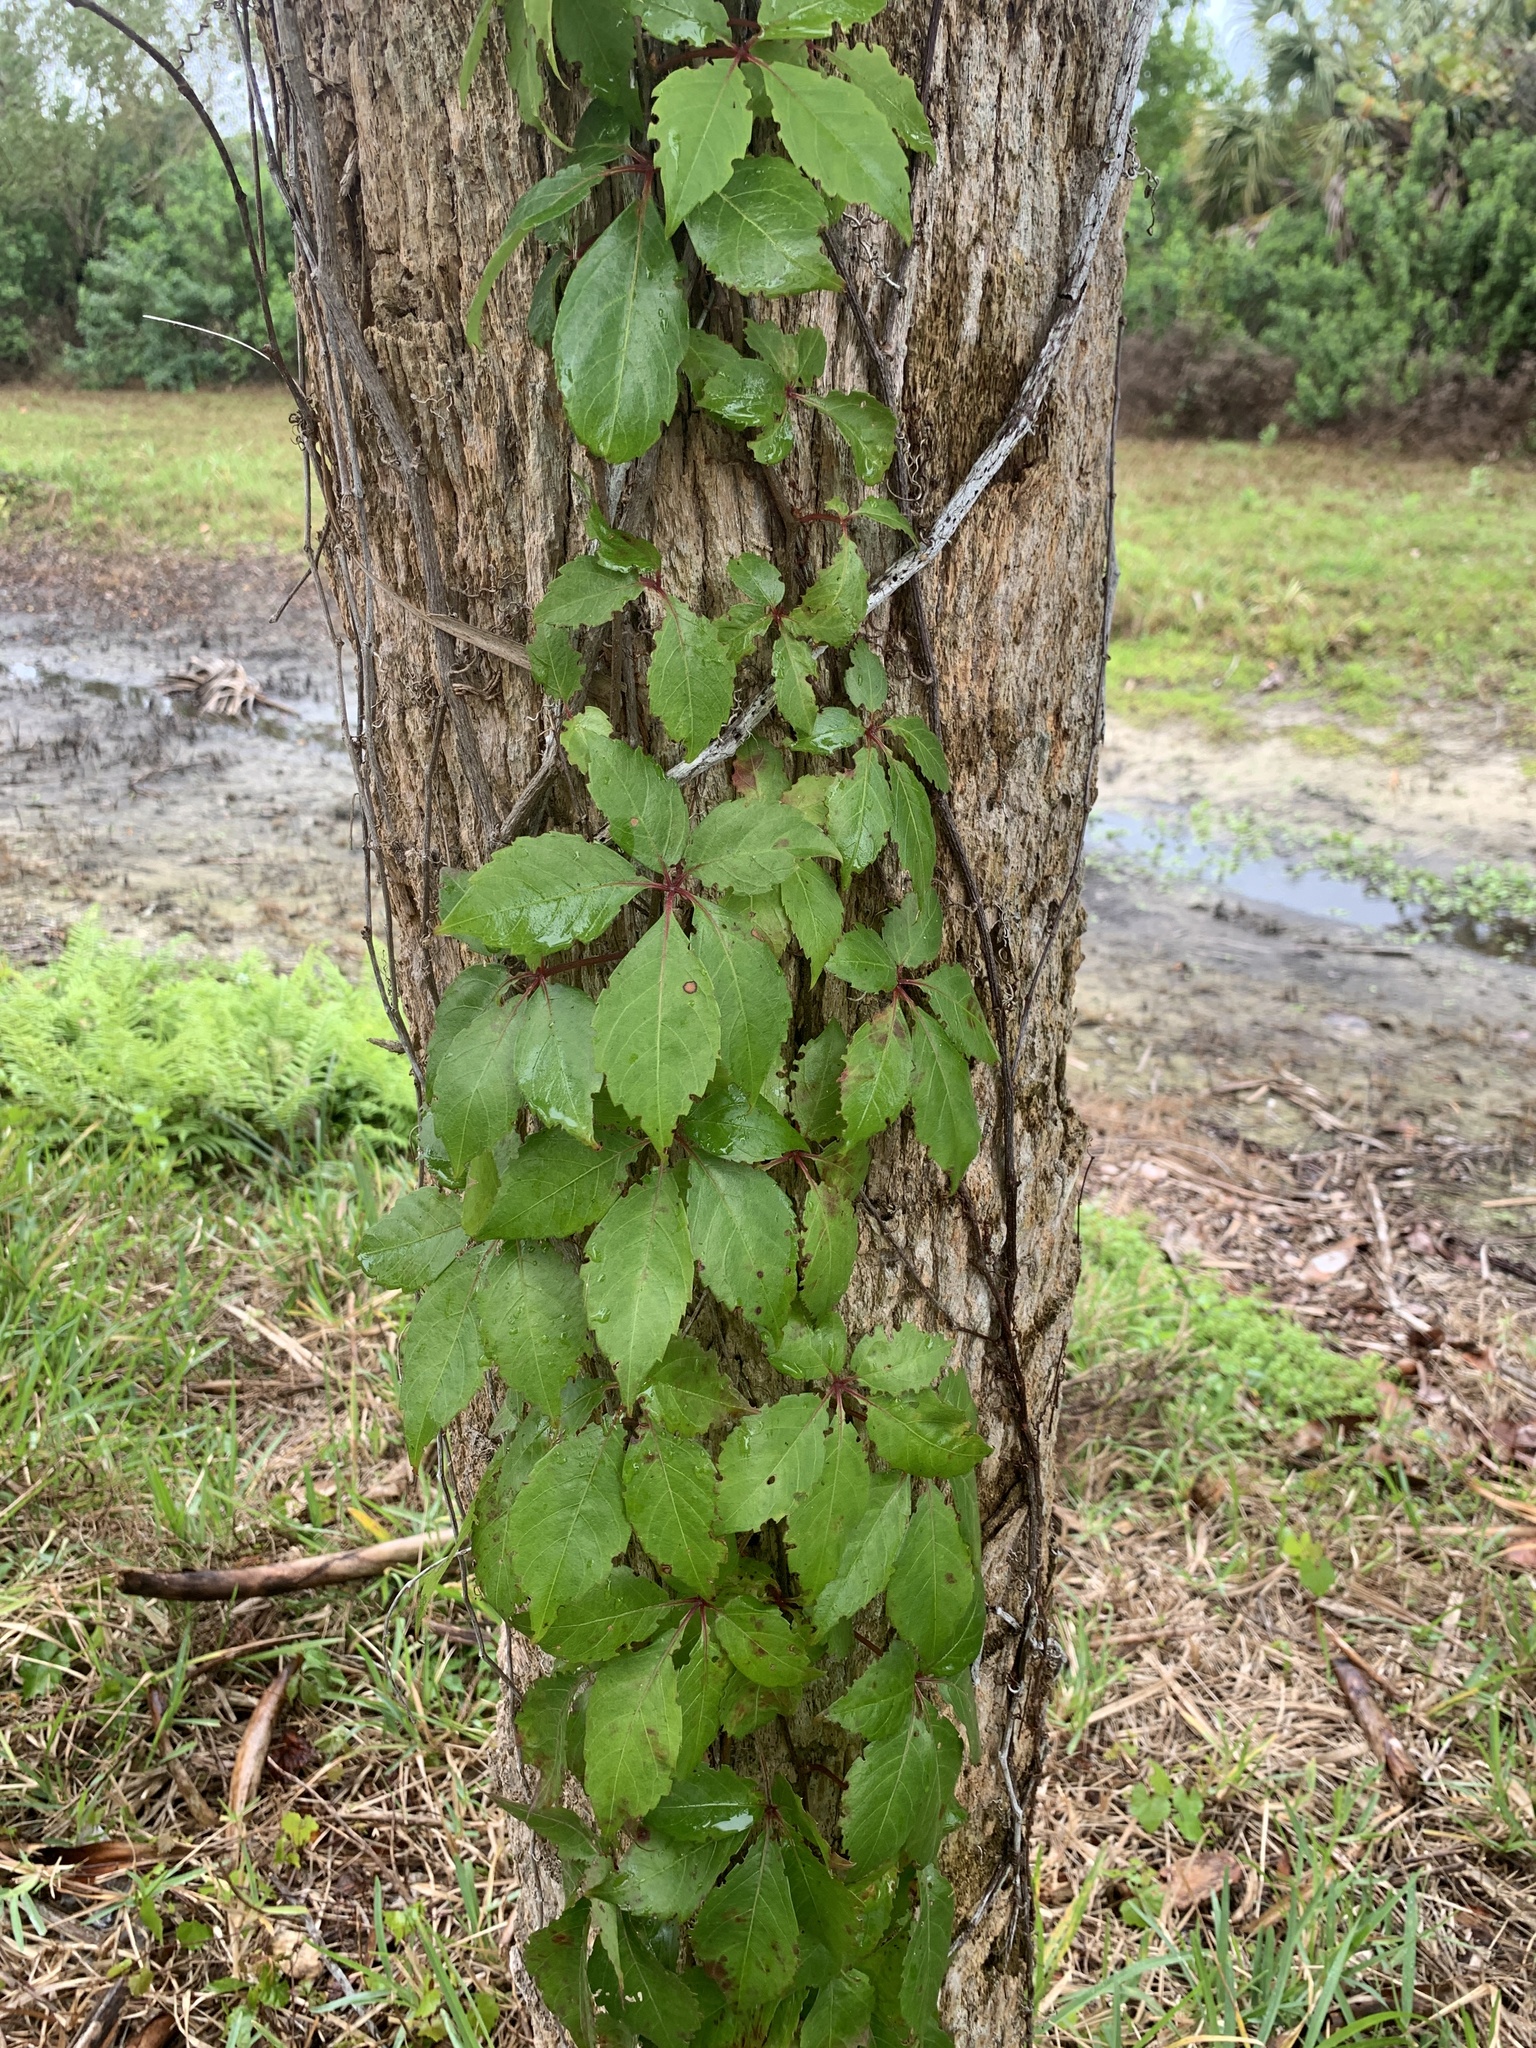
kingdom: Plantae
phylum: Tracheophyta
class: Magnoliopsida
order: Vitales
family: Vitaceae
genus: Parthenocissus
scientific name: Parthenocissus quinquefolia
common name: Virginia-creeper
